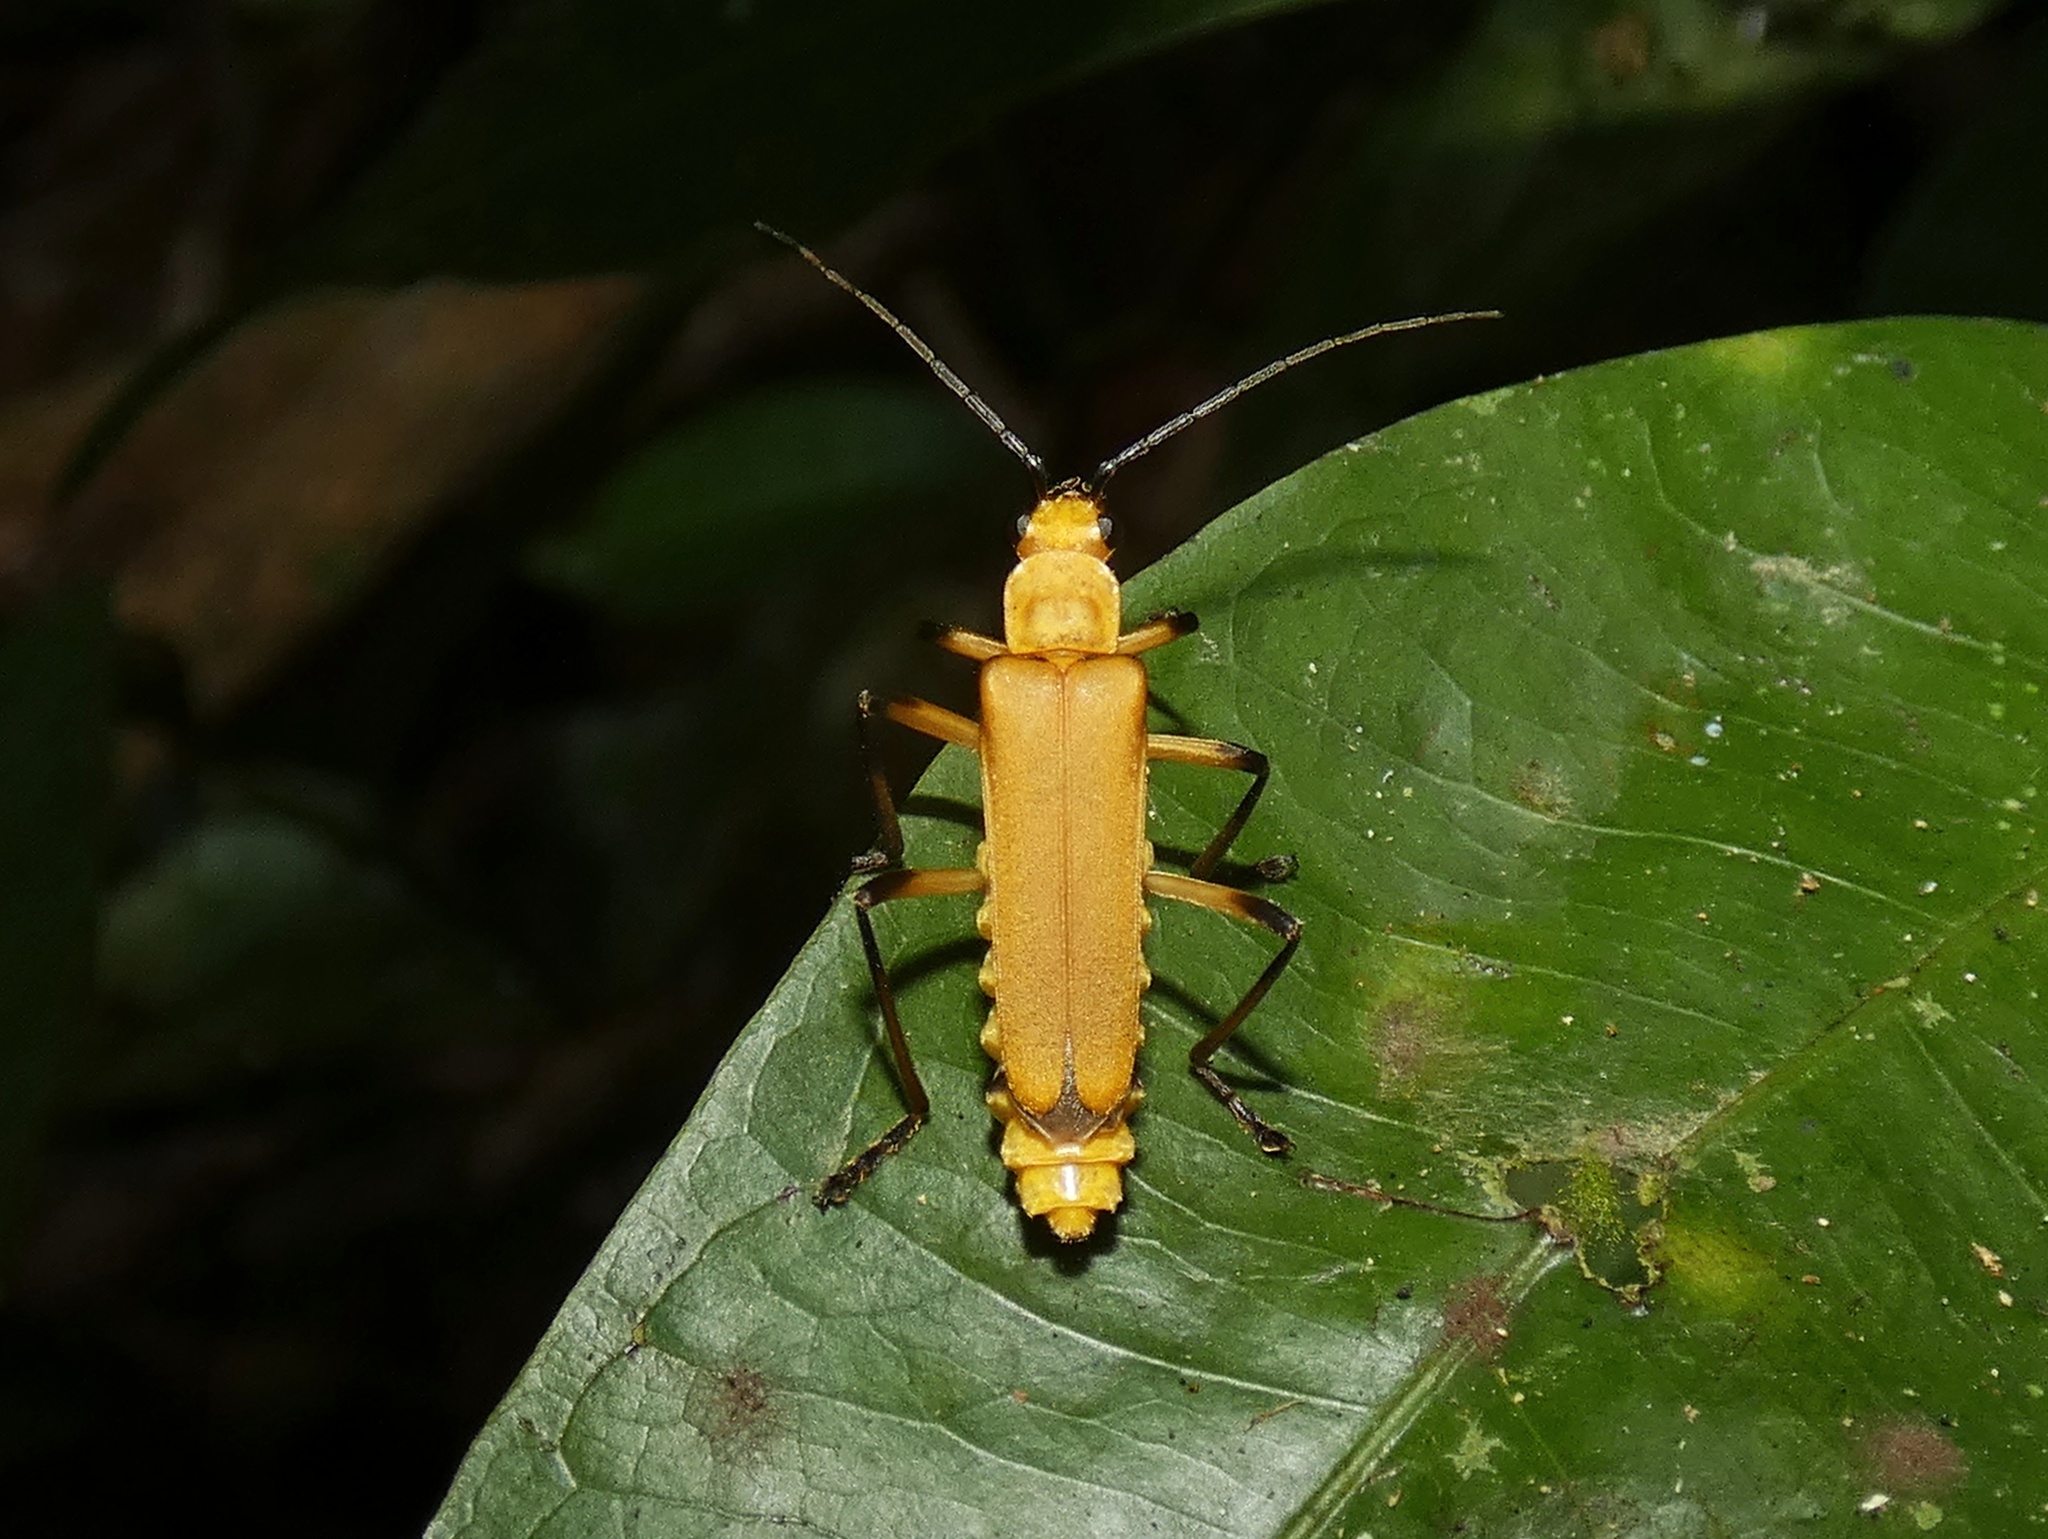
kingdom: Animalia
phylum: Arthropoda
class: Insecta
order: Coleoptera
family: Cantharidae
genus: Chauliognathus
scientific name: Chauliognathus
